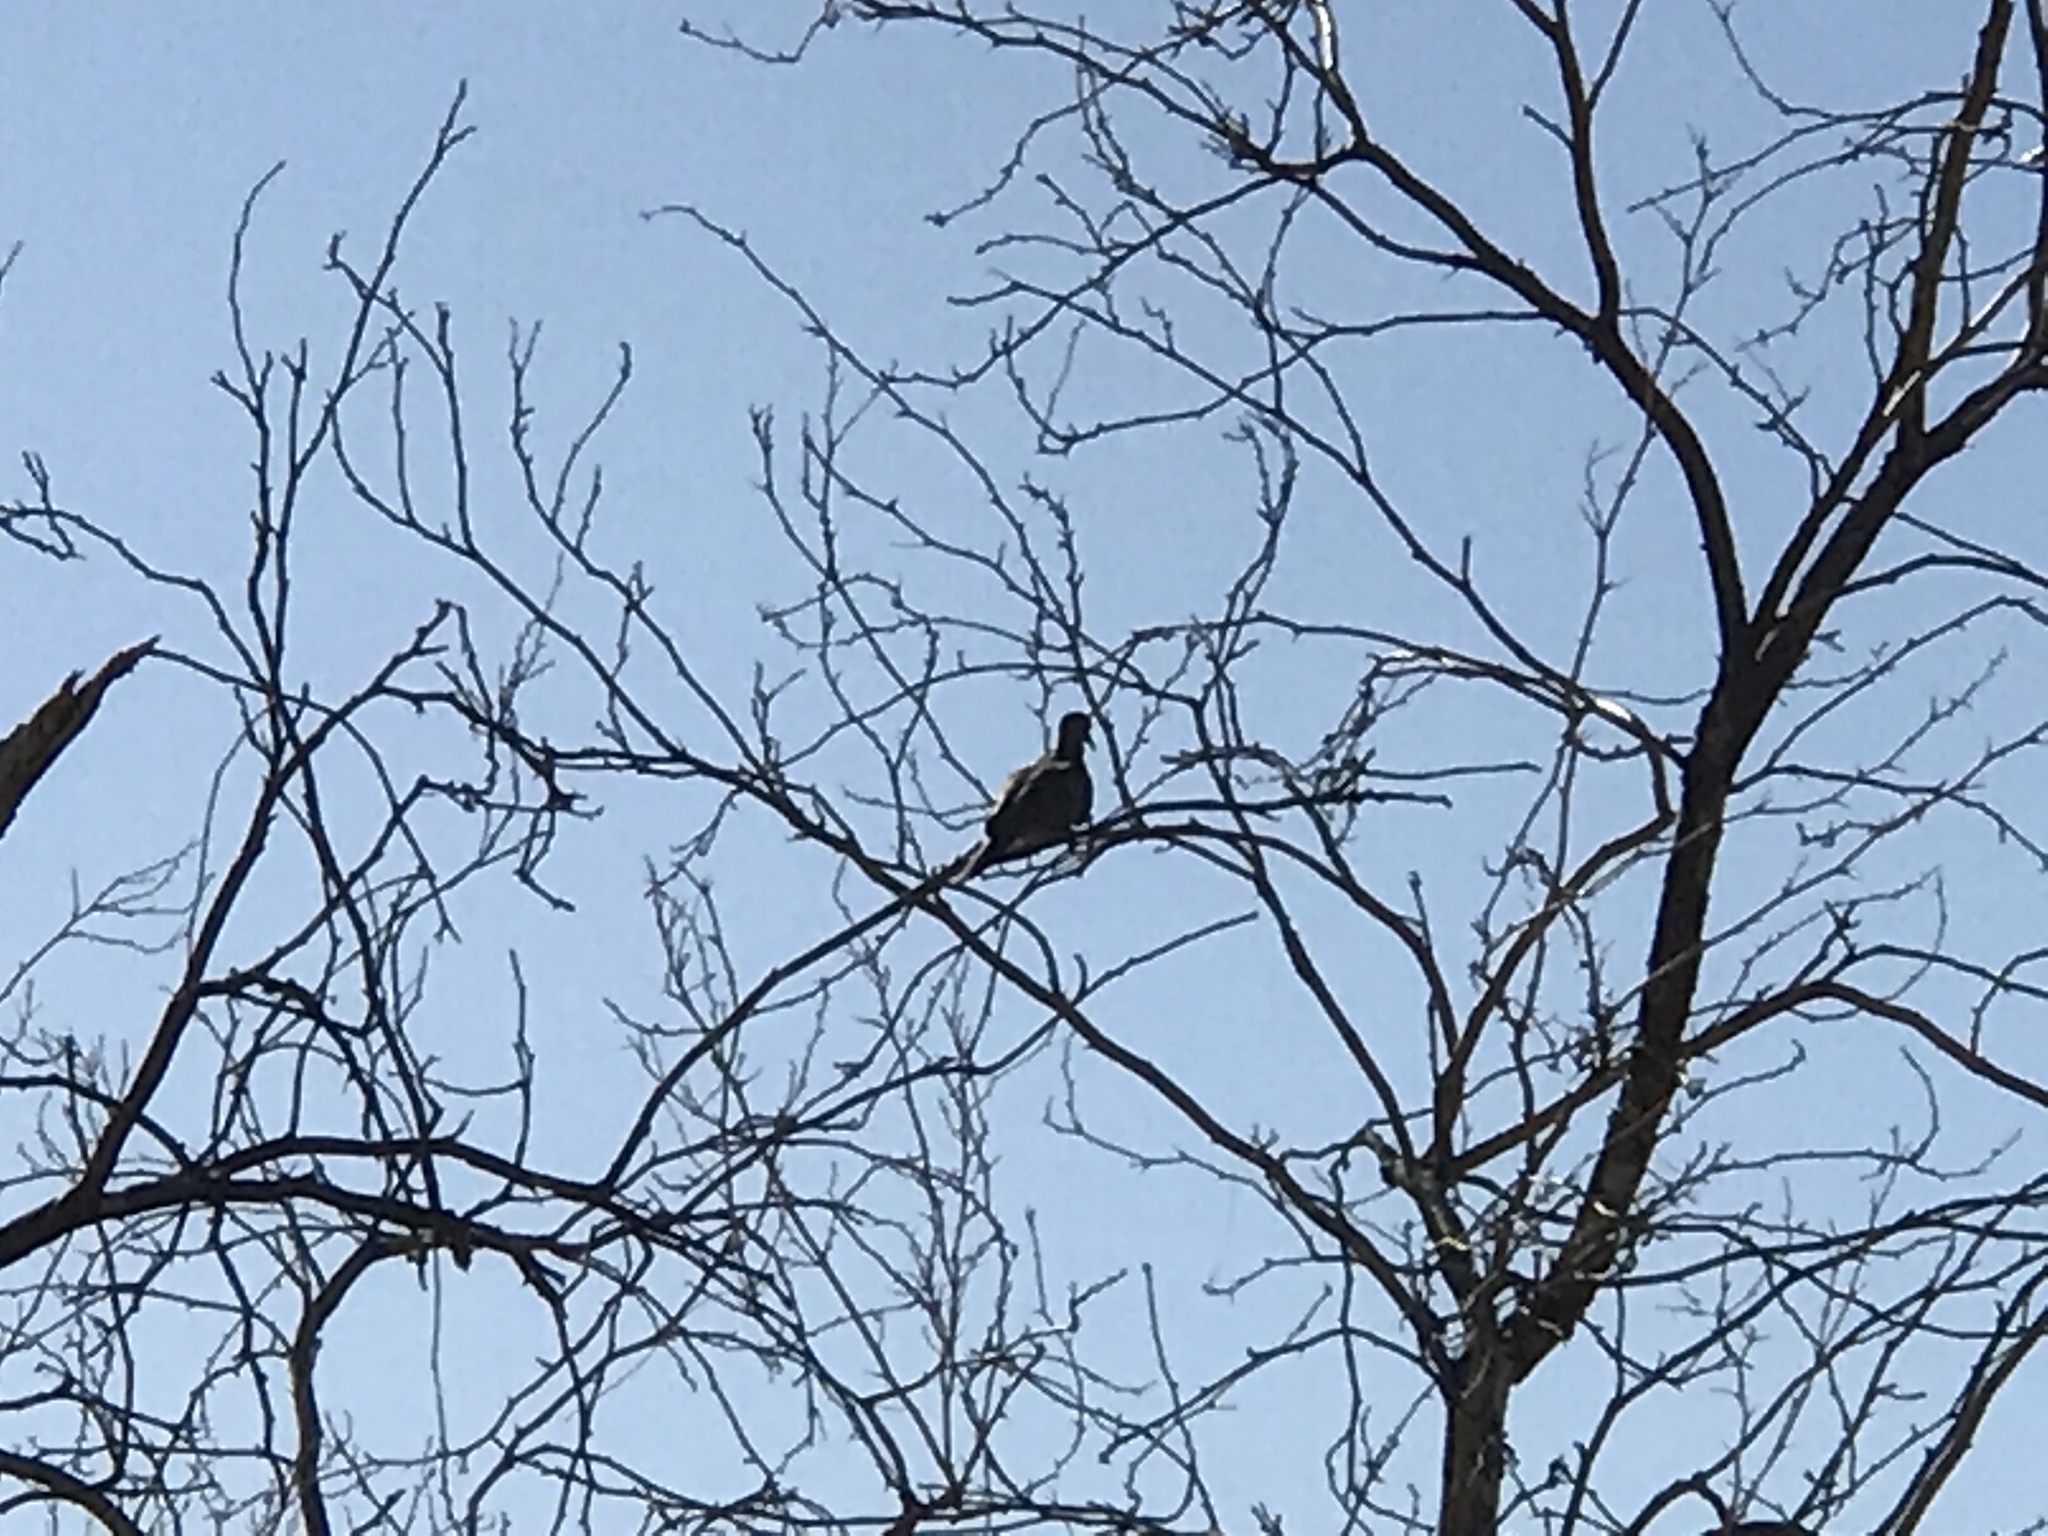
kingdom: Animalia
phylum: Chordata
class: Aves
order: Columbiformes
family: Columbidae
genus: Zenaida
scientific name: Zenaida macroura
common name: Mourning dove
